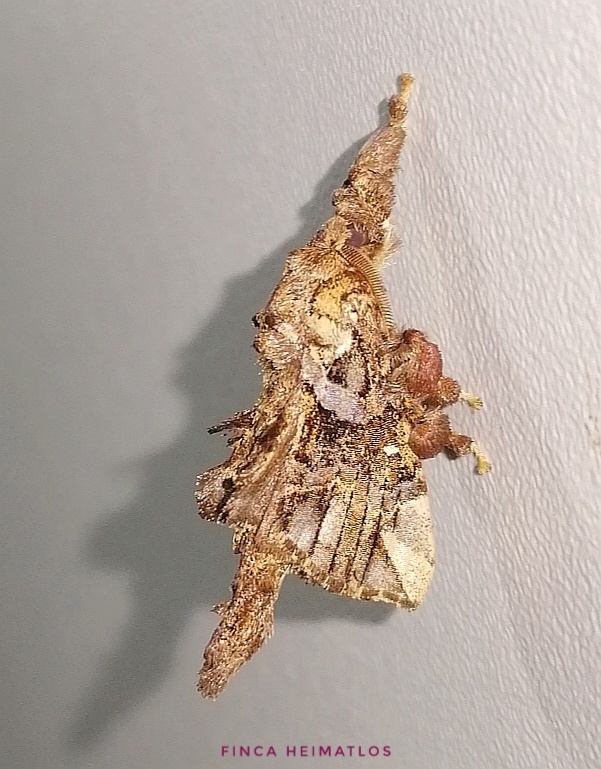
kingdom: Animalia
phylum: Arthropoda
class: Insecta
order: Lepidoptera
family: Bombycidae
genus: Tamphana
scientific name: Tamphana marmorea
